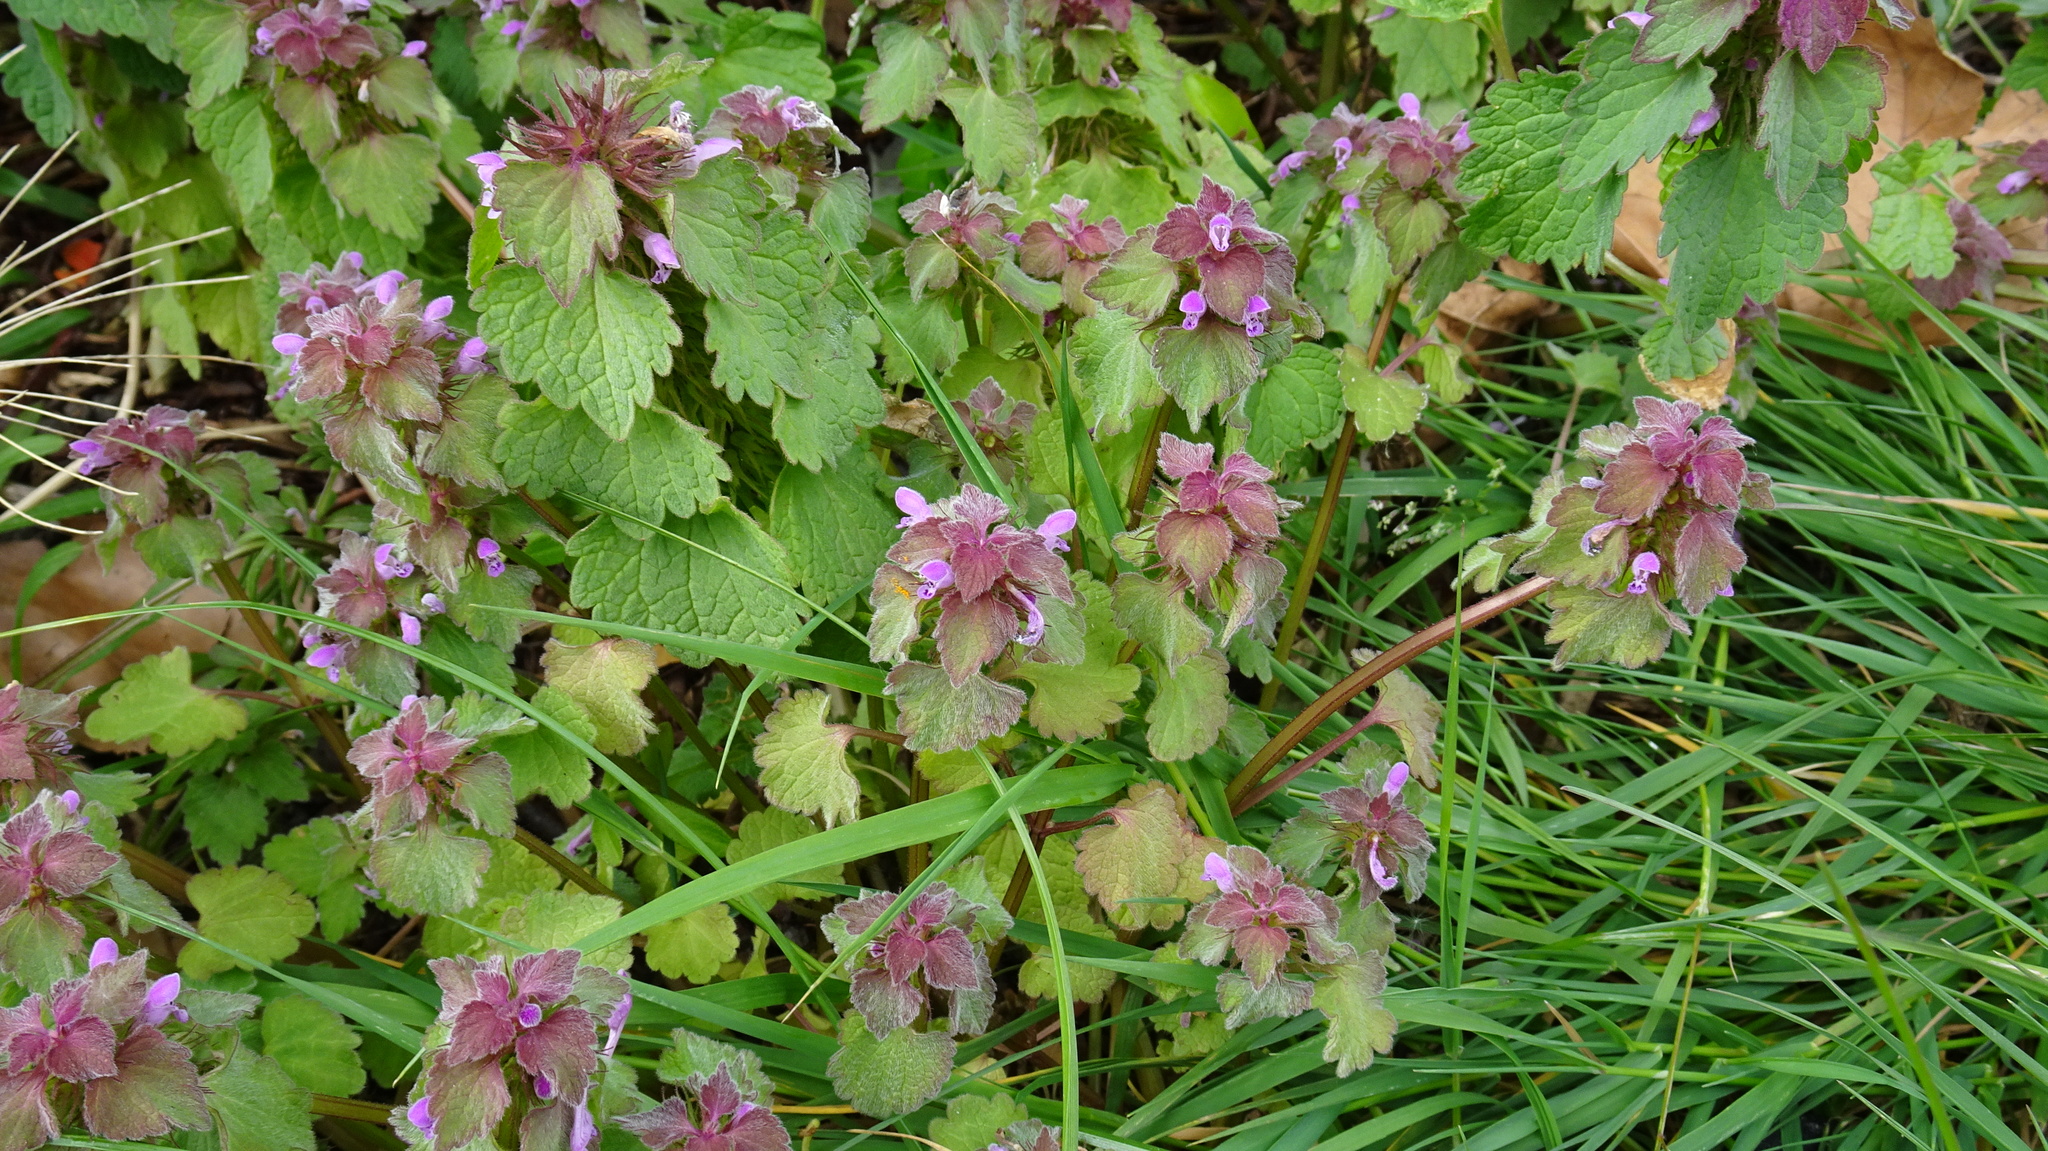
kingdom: Plantae
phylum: Tracheophyta
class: Magnoliopsida
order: Lamiales
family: Lamiaceae
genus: Lamium
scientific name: Lamium purpureum
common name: Red dead-nettle
